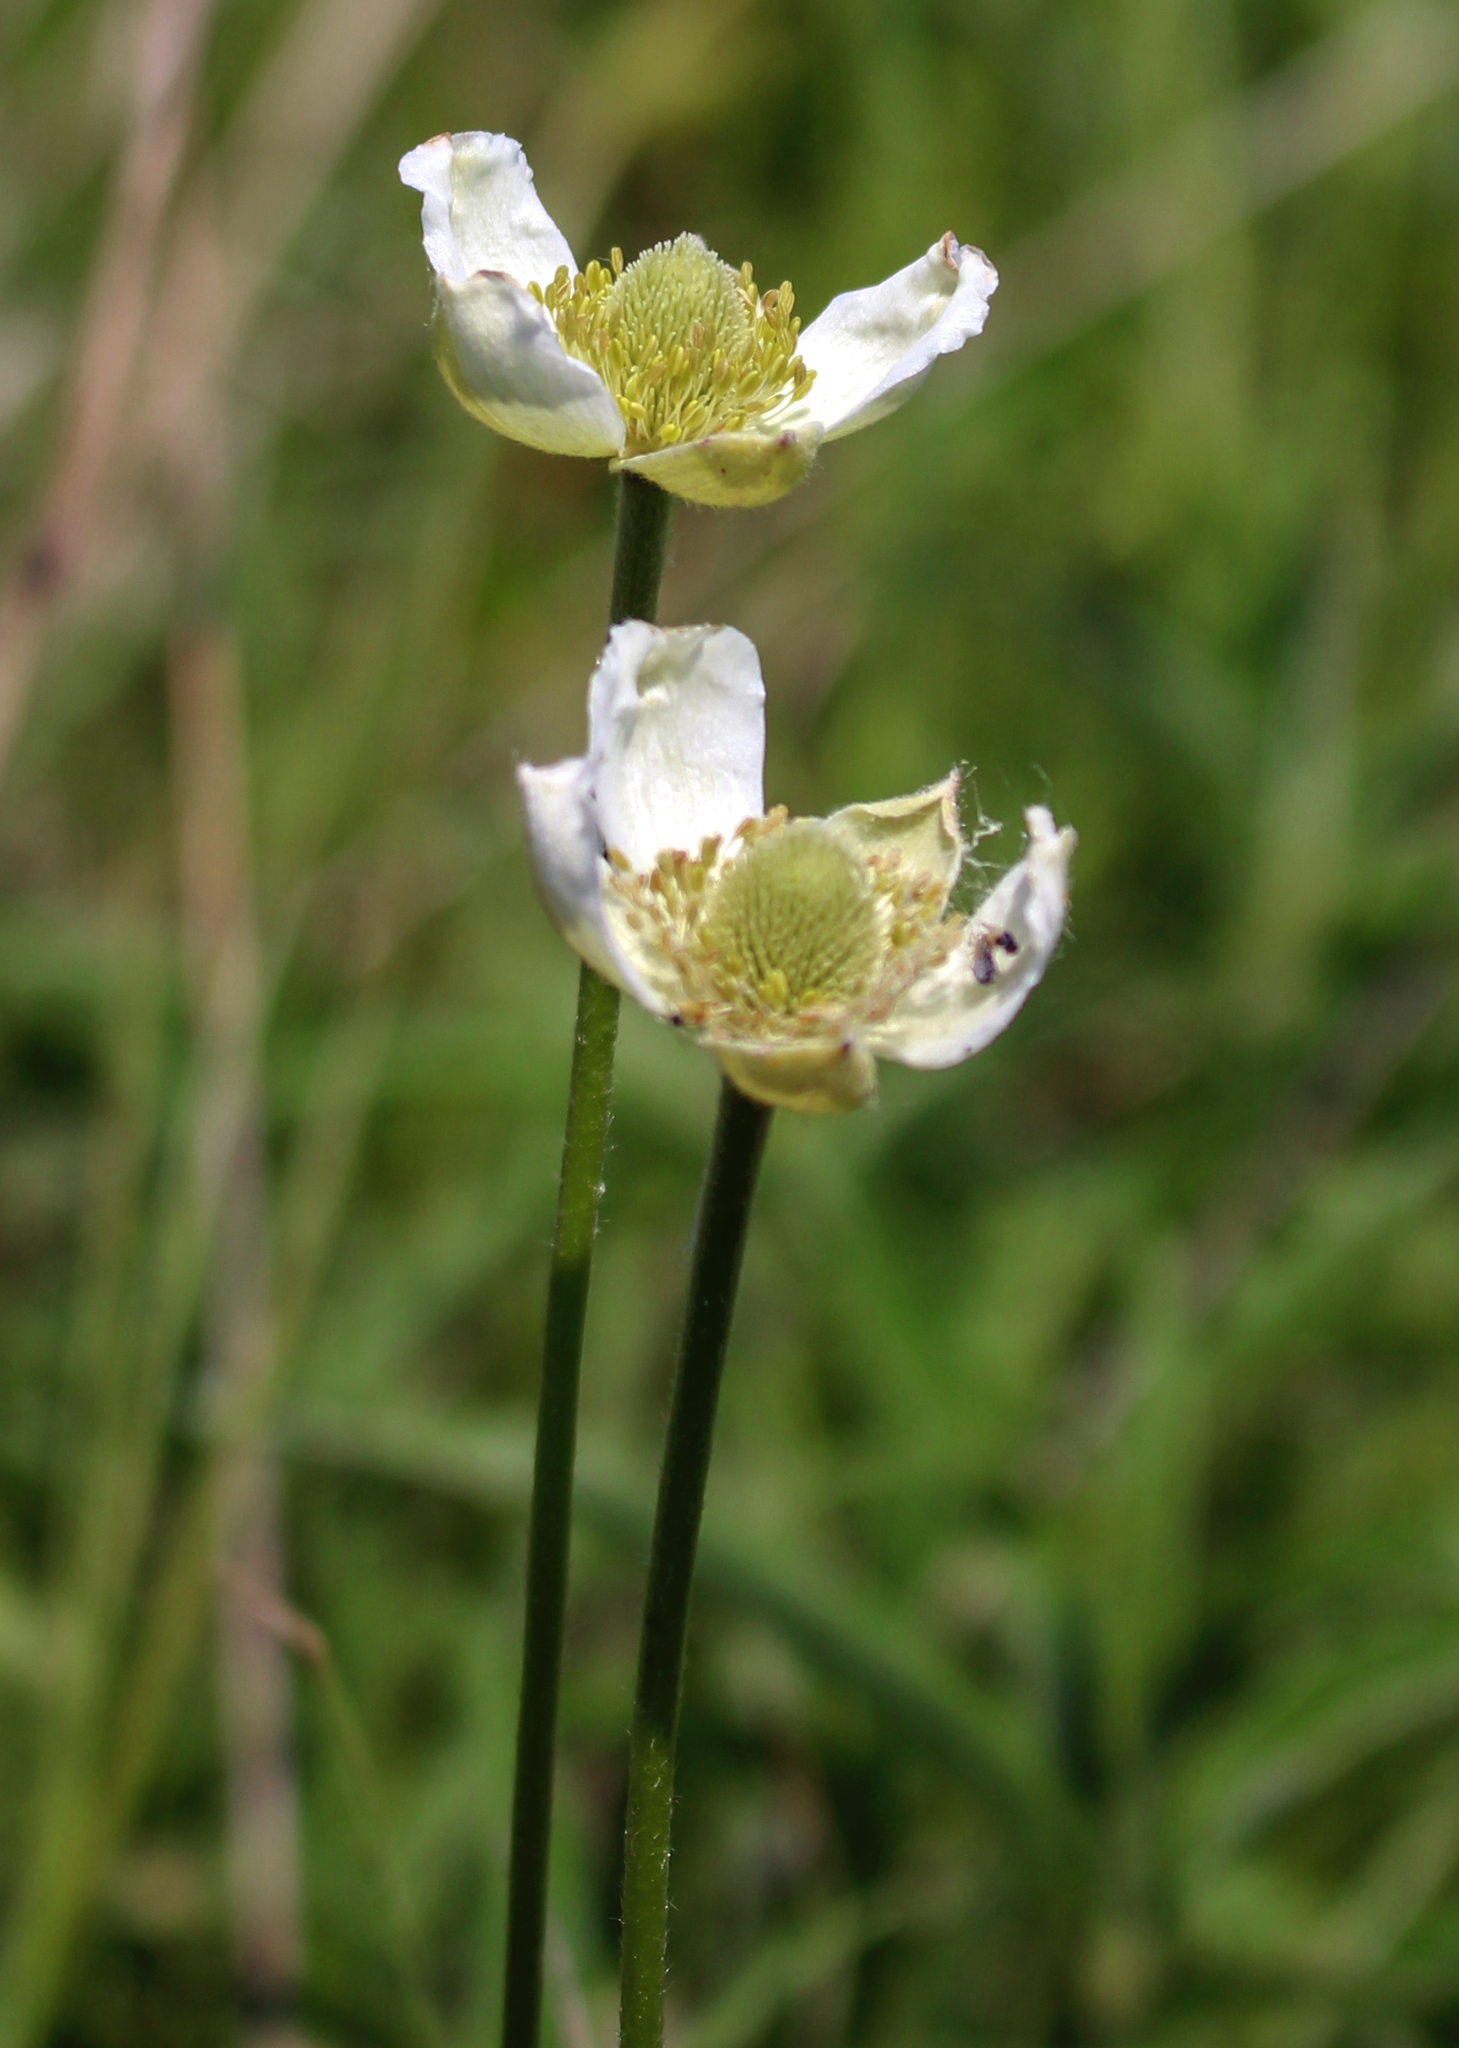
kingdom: Plantae
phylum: Tracheophyta
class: Magnoliopsida
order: Ranunculales
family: Ranunculaceae
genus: Anemone
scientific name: Anemone virginiana
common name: Tall anemone
